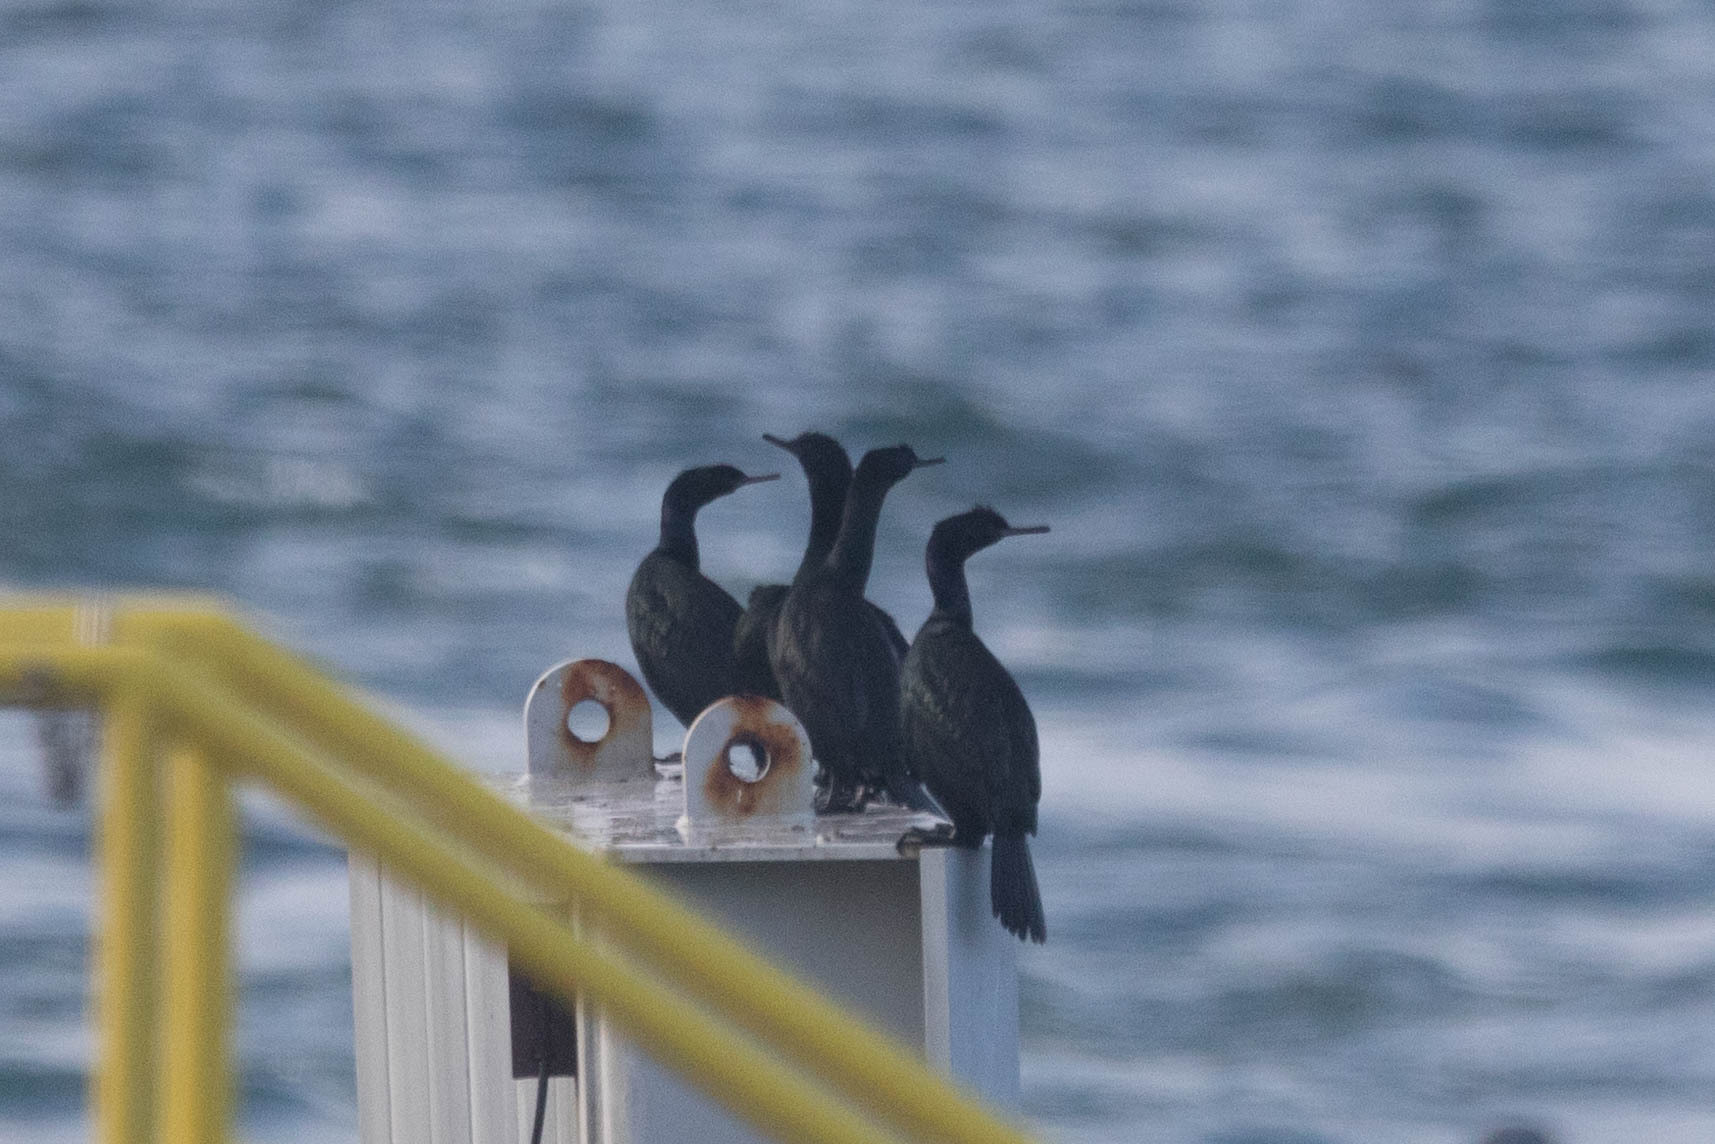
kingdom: Animalia
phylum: Chordata
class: Aves
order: Suliformes
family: Phalacrocoracidae
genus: Phalacrocorax
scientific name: Phalacrocorax pelagicus
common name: Pelagic cormorant
